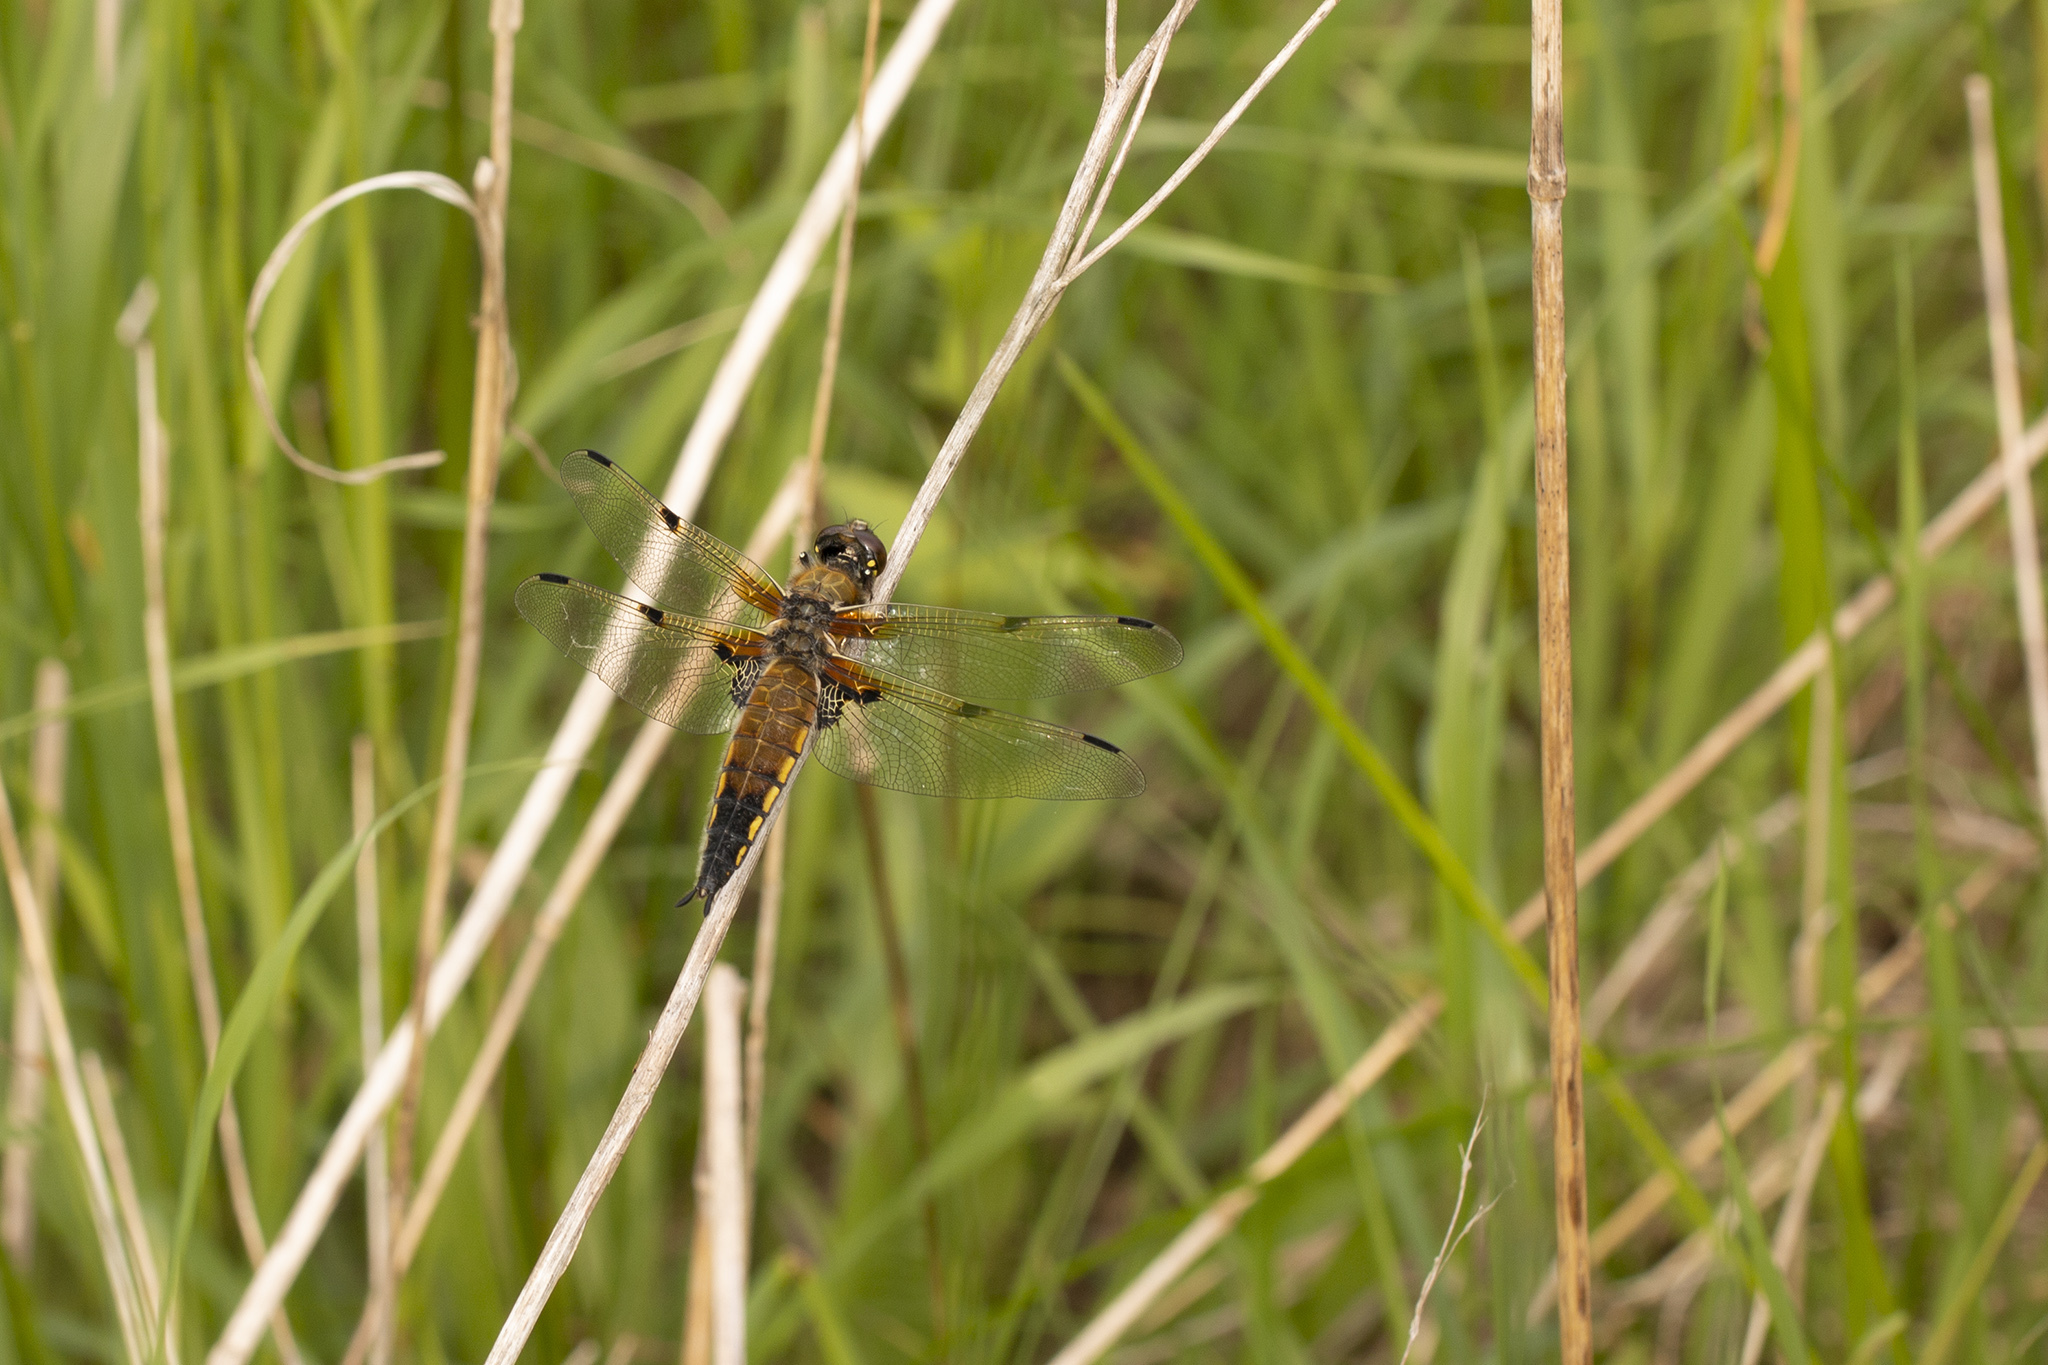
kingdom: Animalia
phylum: Arthropoda
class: Insecta
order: Odonata
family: Libellulidae
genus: Libellula
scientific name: Libellula quadrimaculata
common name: Four-spotted chaser
